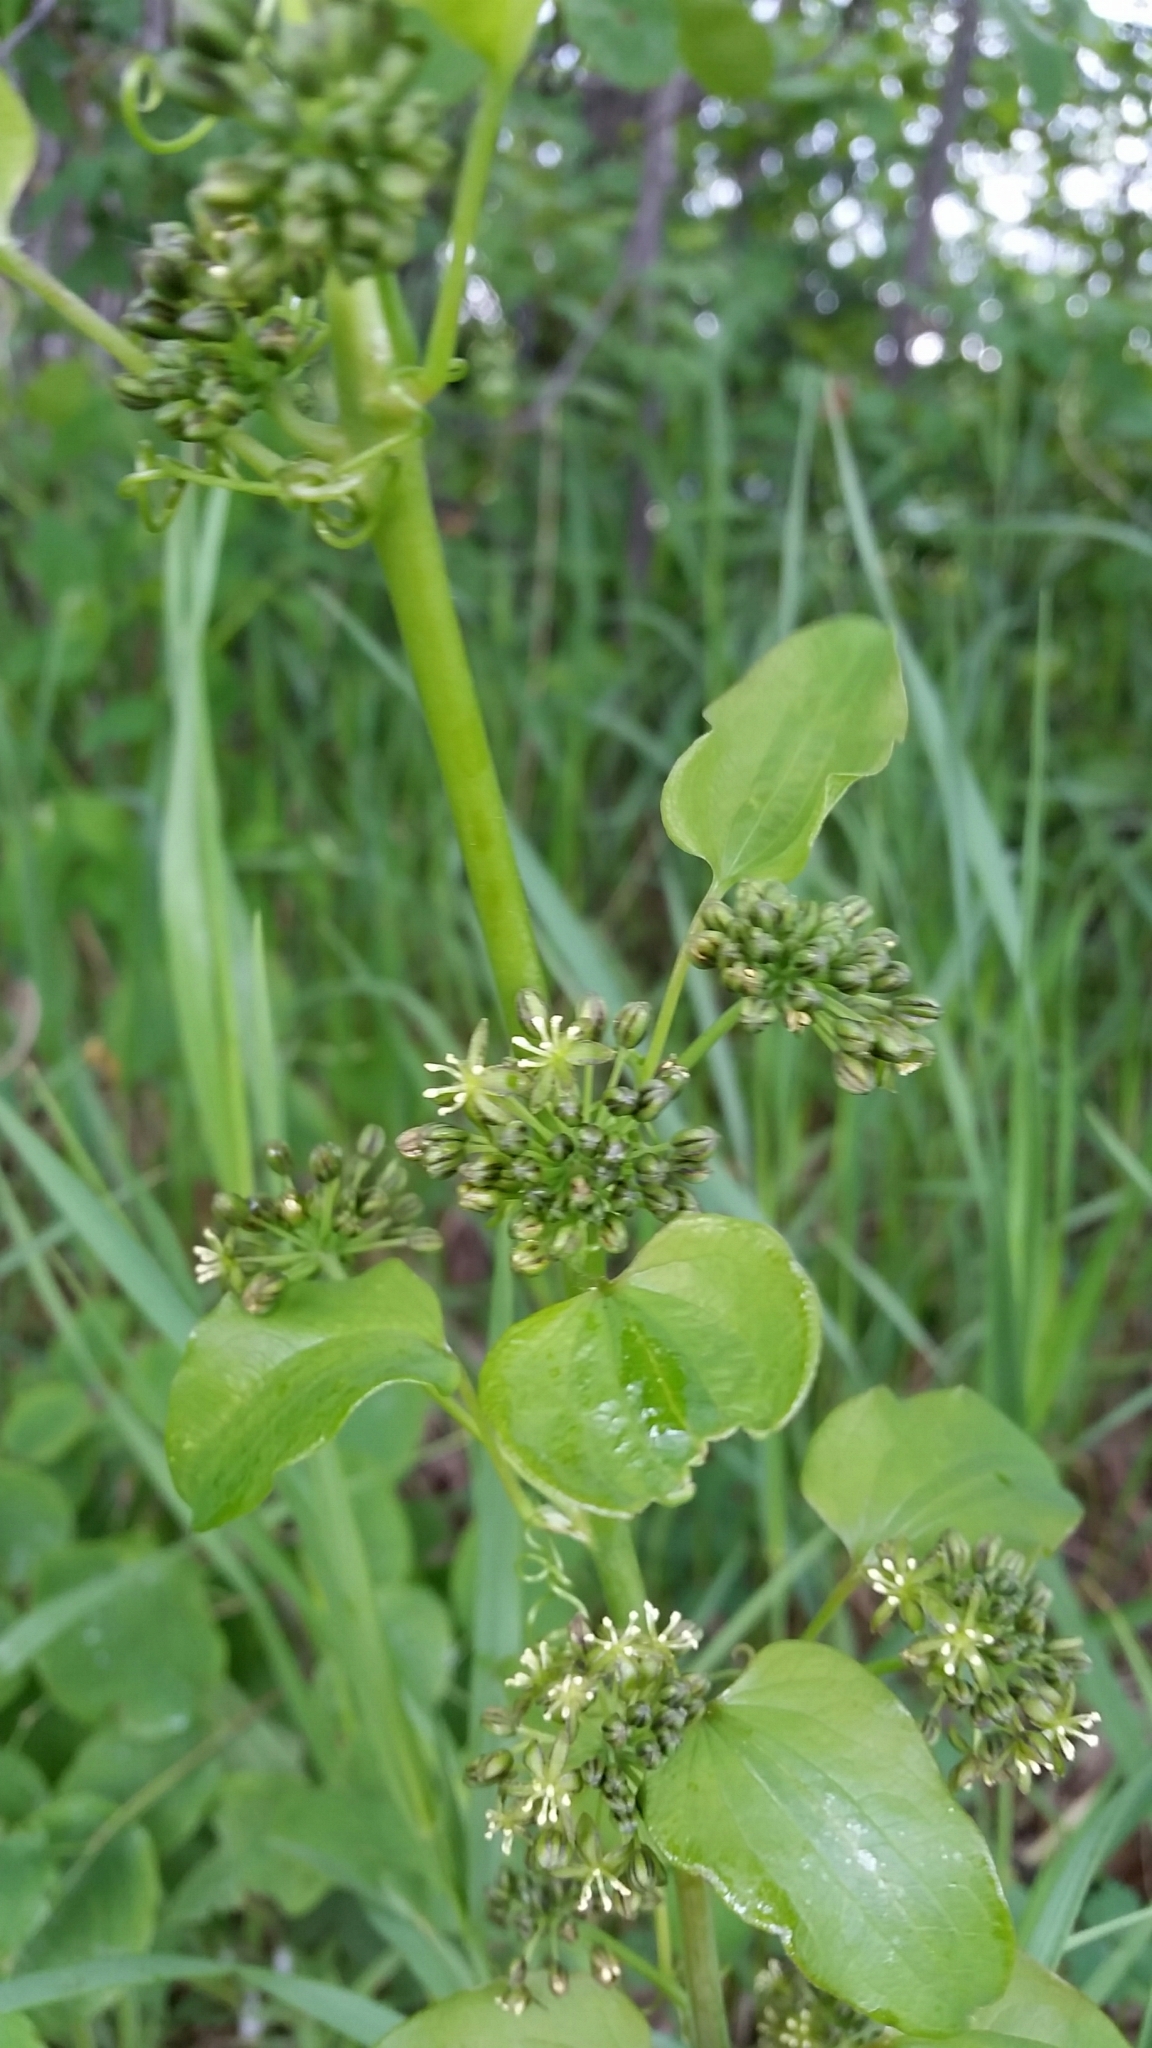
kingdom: Plantae
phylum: Tracheophyta
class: Liliopsida
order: Liliales
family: Smilacaceae
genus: Smilax
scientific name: Smilax lasioneura
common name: Blue ridge carrionflower
